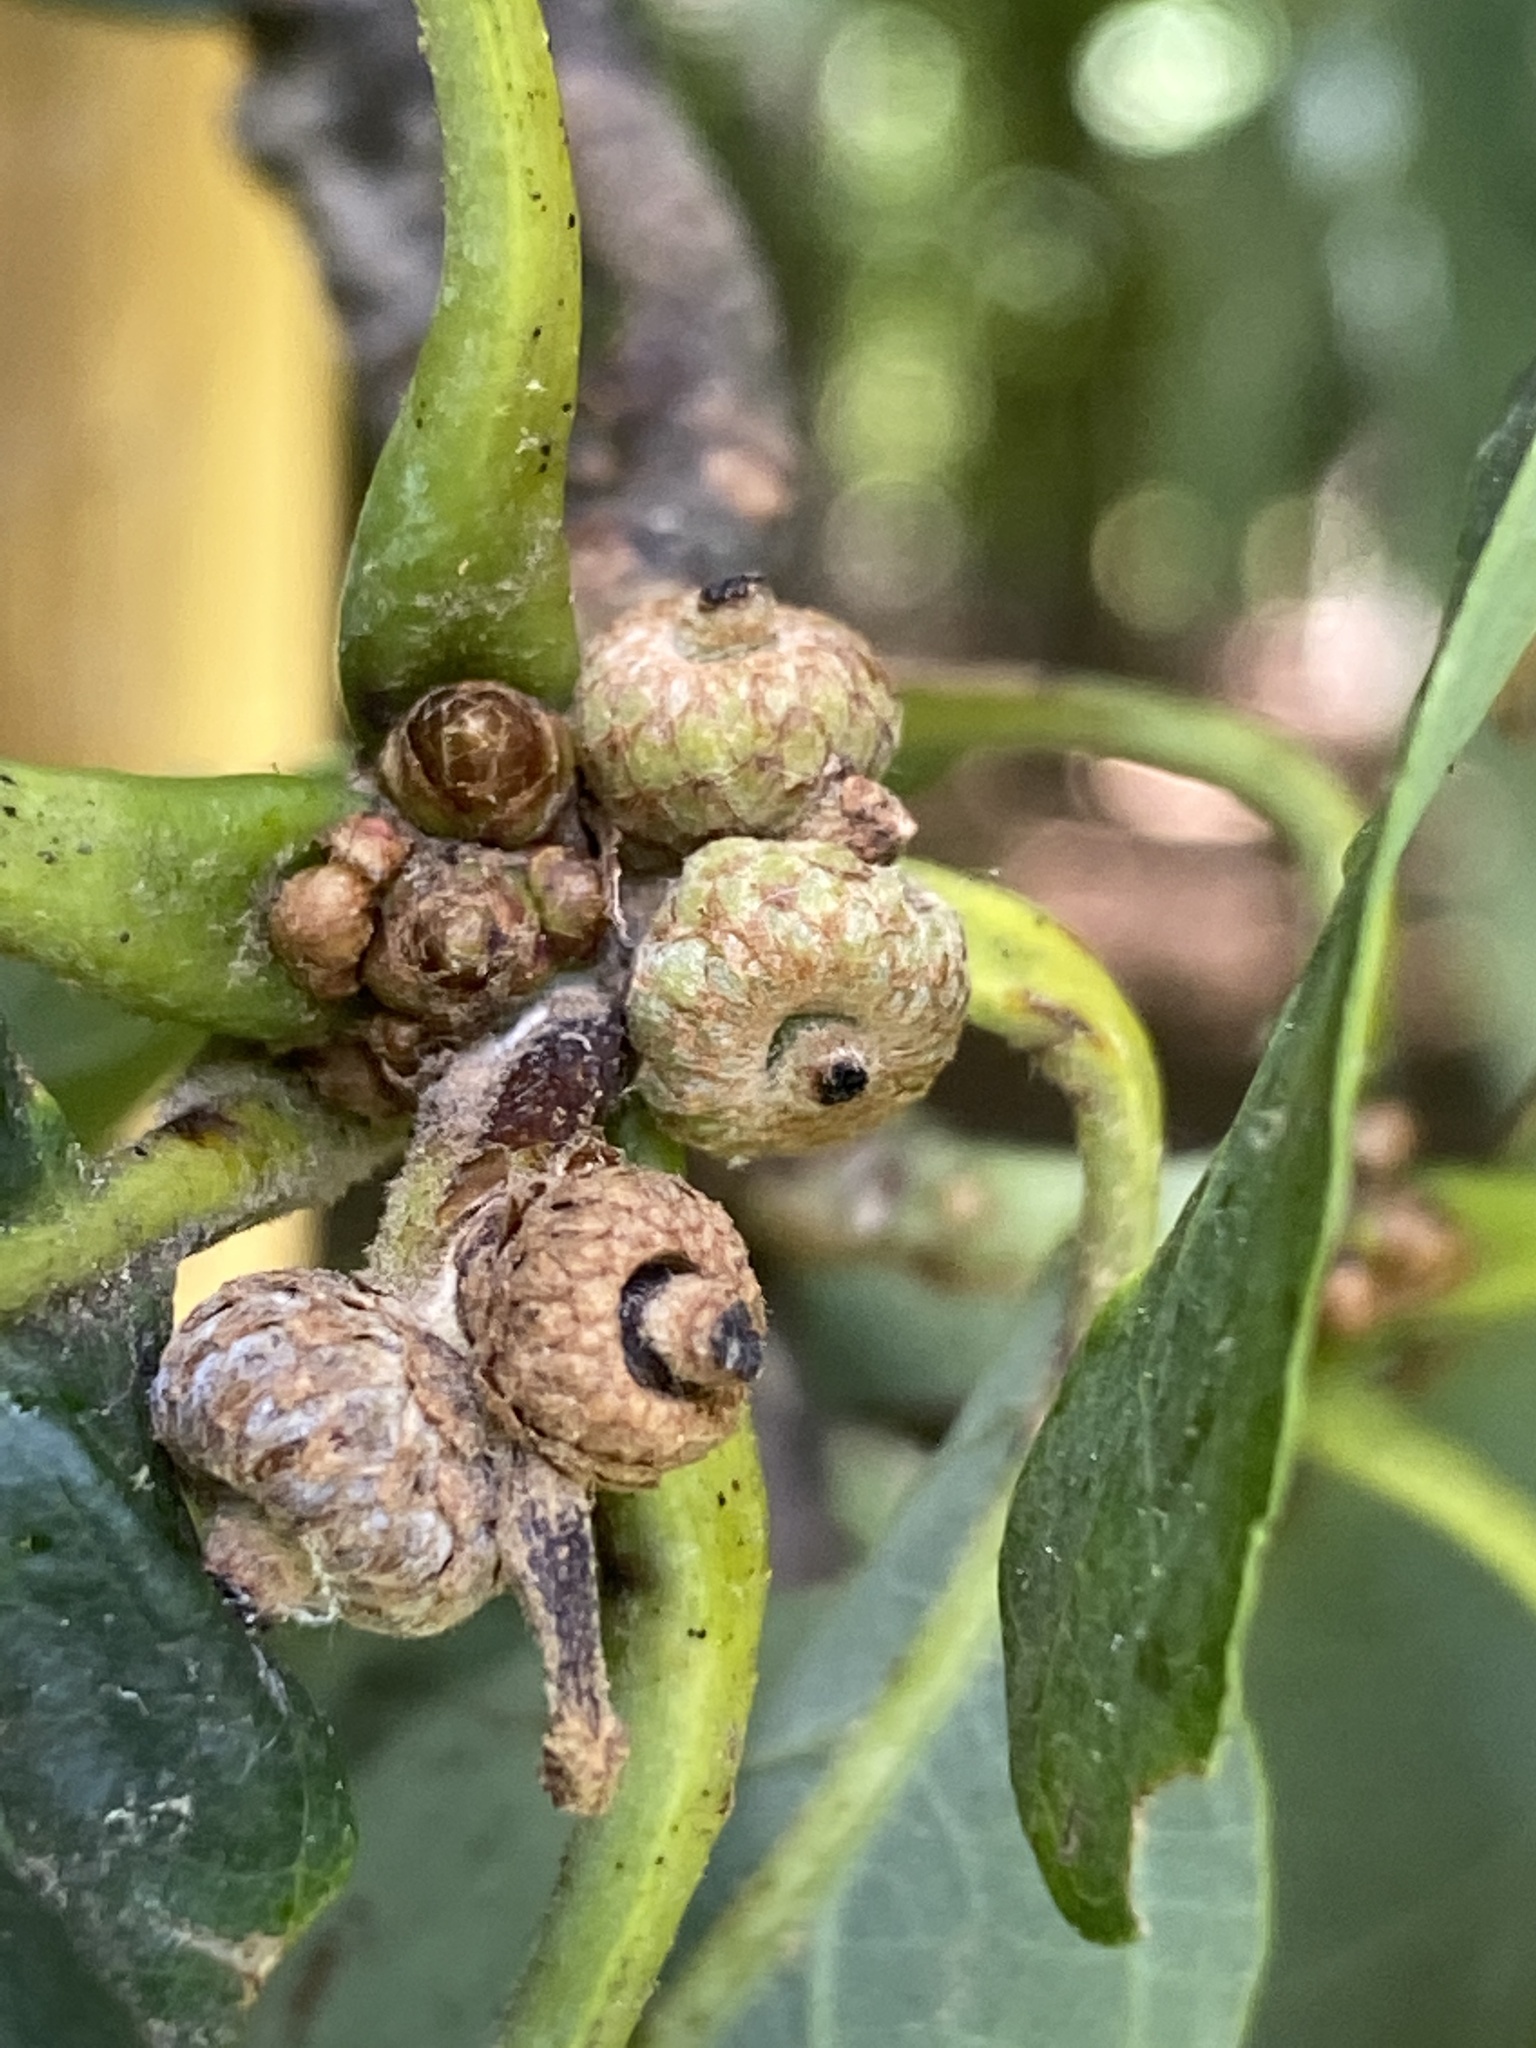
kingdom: Plantae
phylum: Tracheophyta
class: Magnoliopsida
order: Fagales
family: Fagaceae
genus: Quercus
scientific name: Quercus alba
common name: White oak
